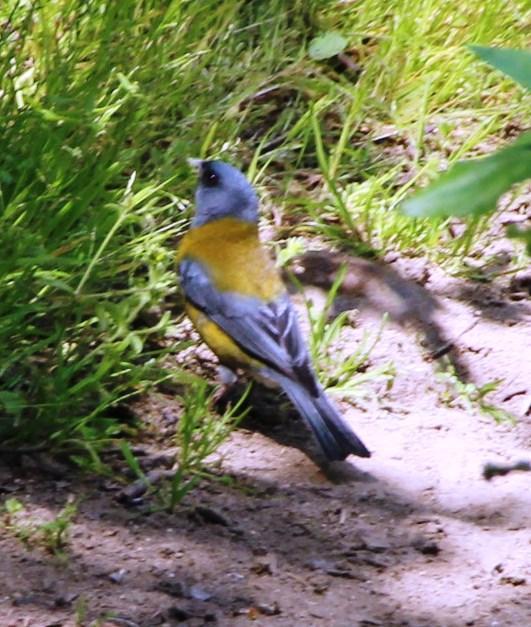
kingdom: Animalia
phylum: Chordata
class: Aves
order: Passeriformes
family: Thraupidae
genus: Phrygilus
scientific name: Phrygilus gayi
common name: Grey-hooded sierra finch
